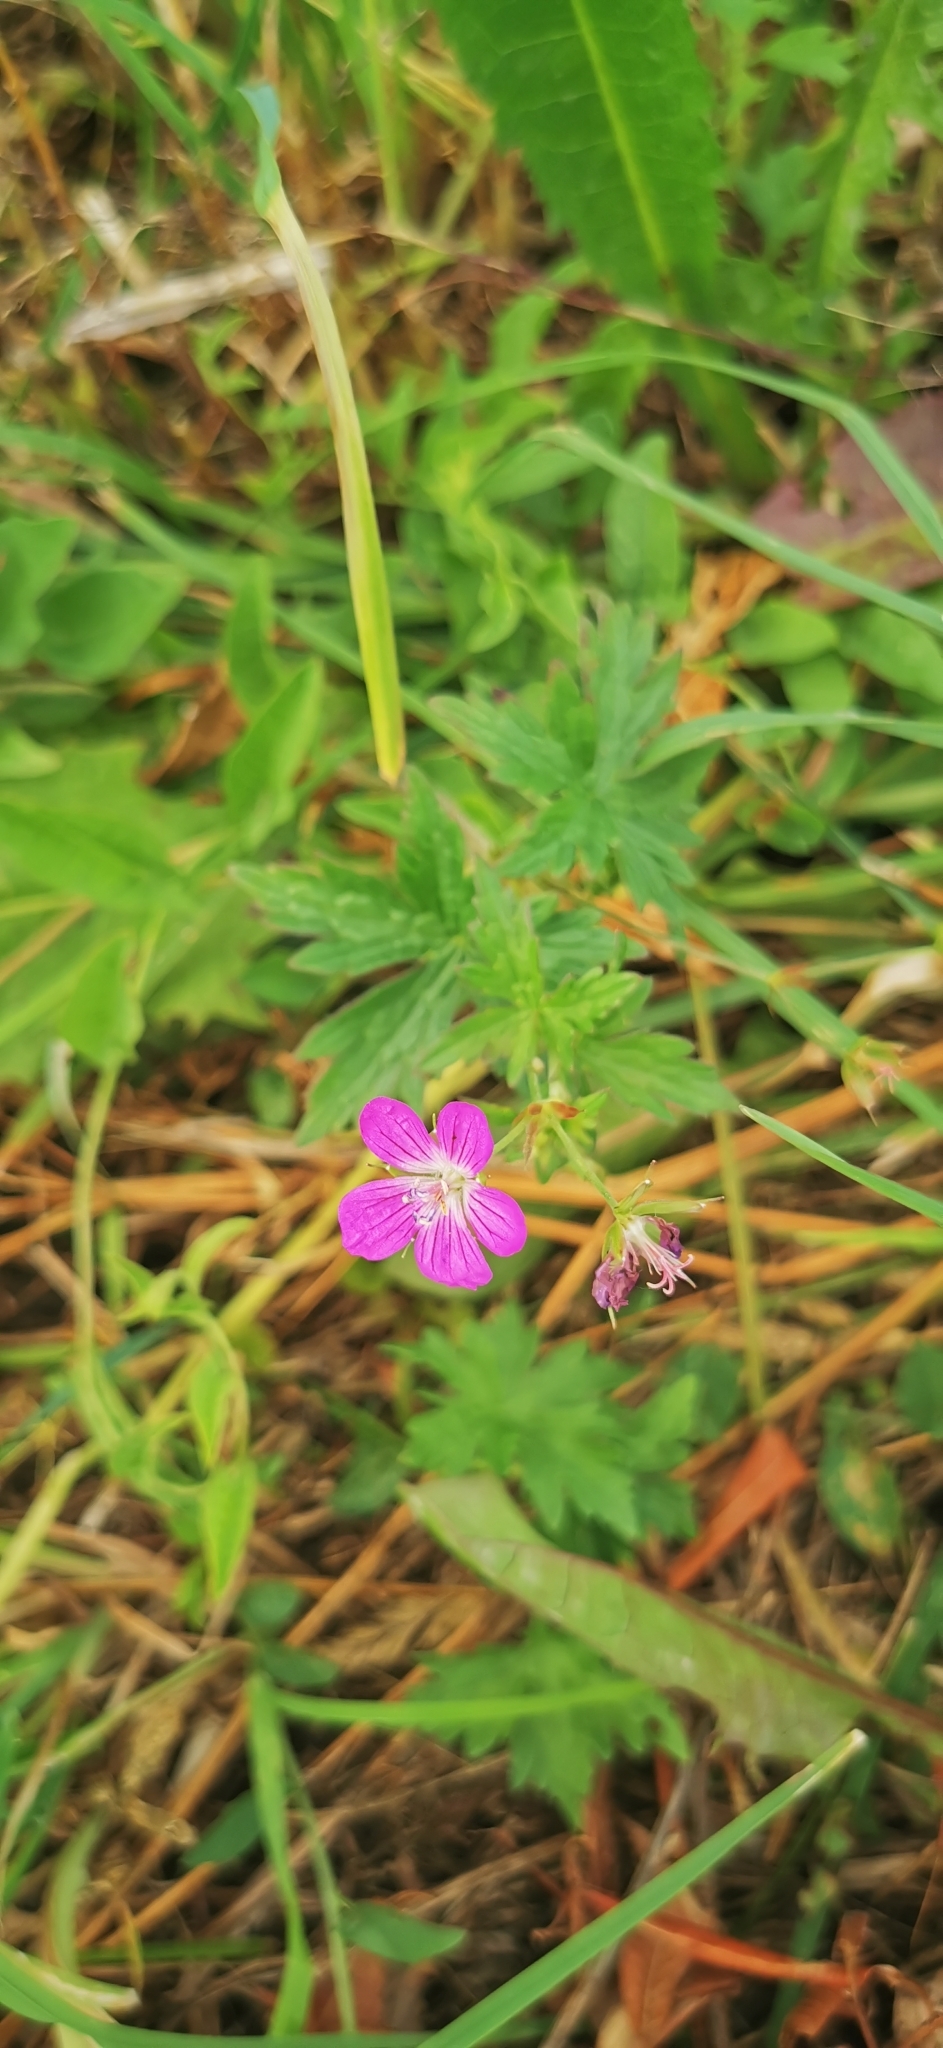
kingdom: Plantae
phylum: Tracheophyta
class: Magnoliopsida
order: Geraniales
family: Geraniaceae
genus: Geranium
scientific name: Geranium palustre
